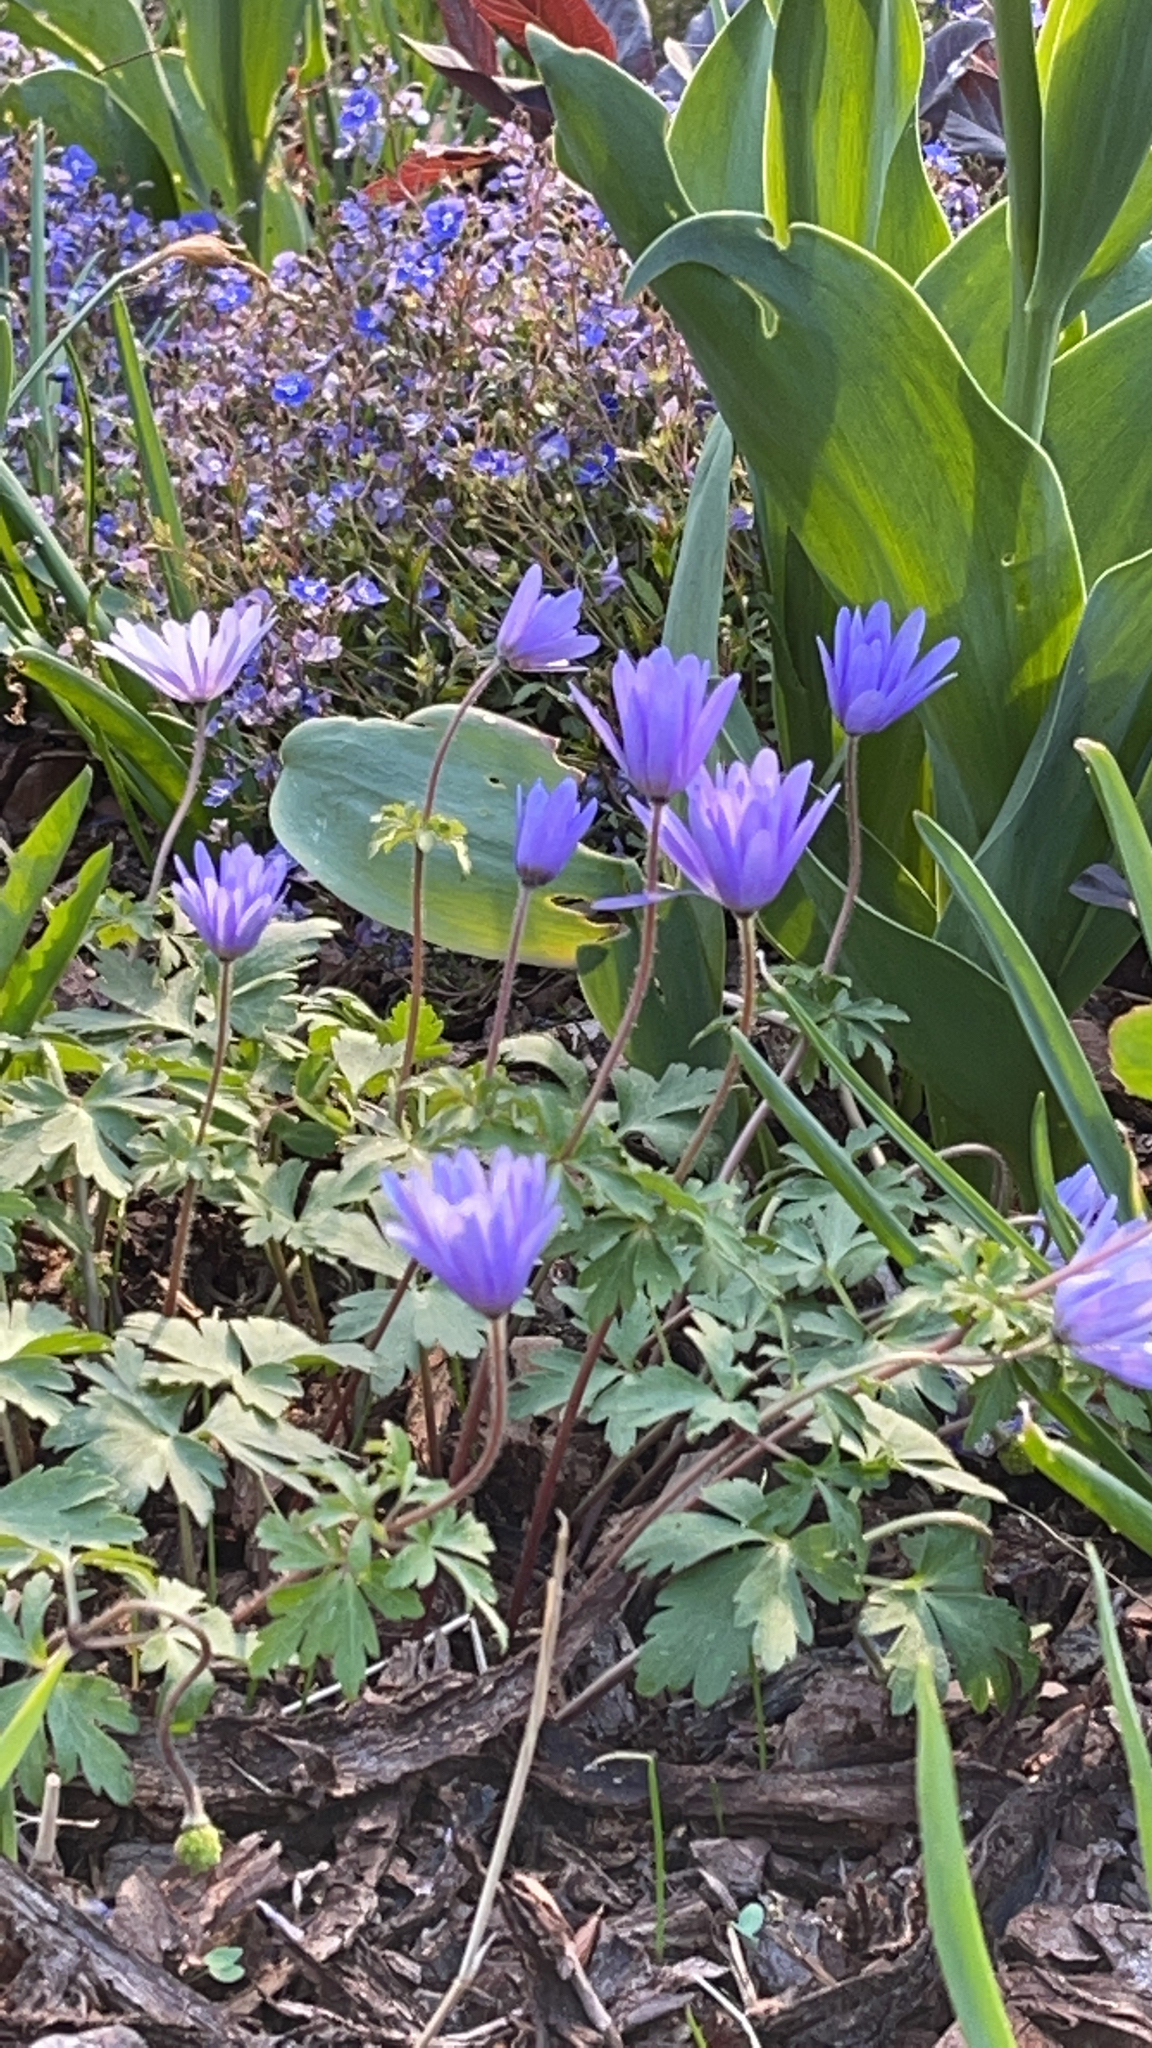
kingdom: Plantae
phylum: Tracheophyta
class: Magnoliopsida
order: Ranunculales
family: Ranunculaceae
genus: Anemone
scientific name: Anemone blanda
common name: Balkan anemone
